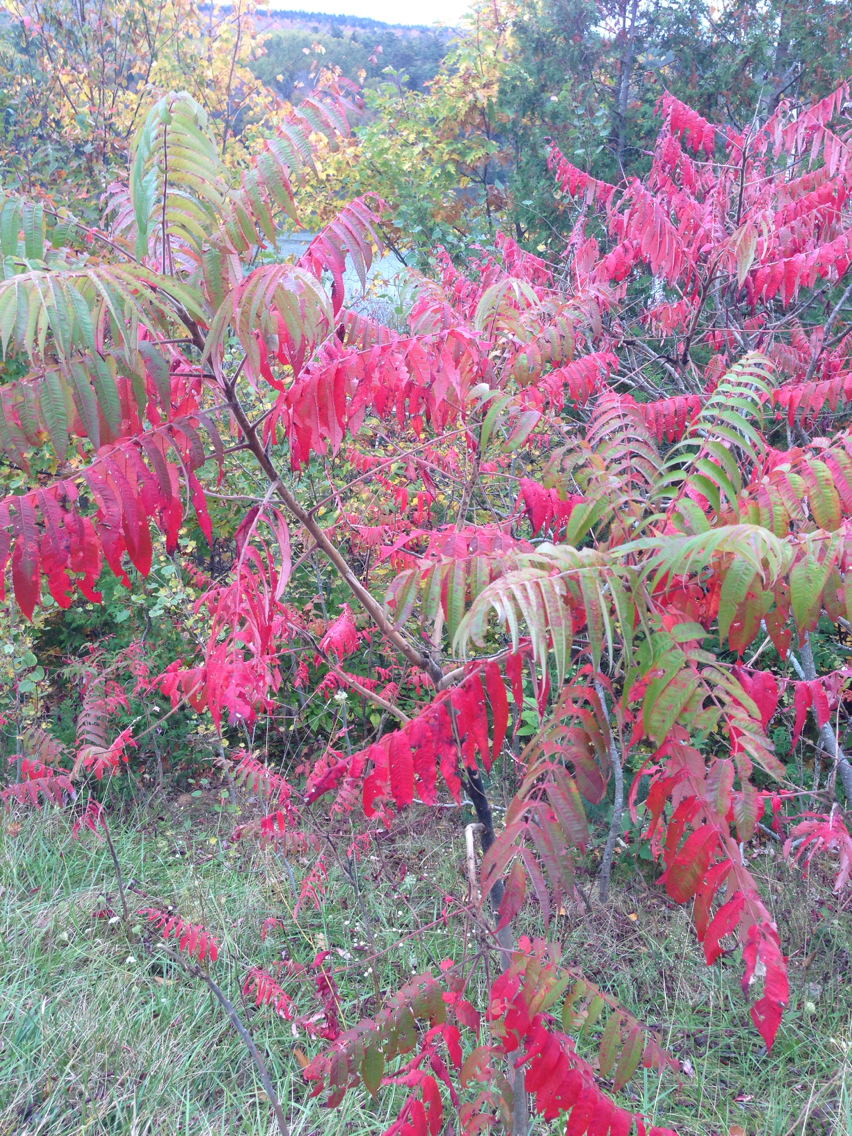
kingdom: Plantae
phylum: Tracheophyta
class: Magnoliopsida
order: Sapindales
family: Anacardiaceae
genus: Rhus
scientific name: Rhus typhina
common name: Staghorn sumac
